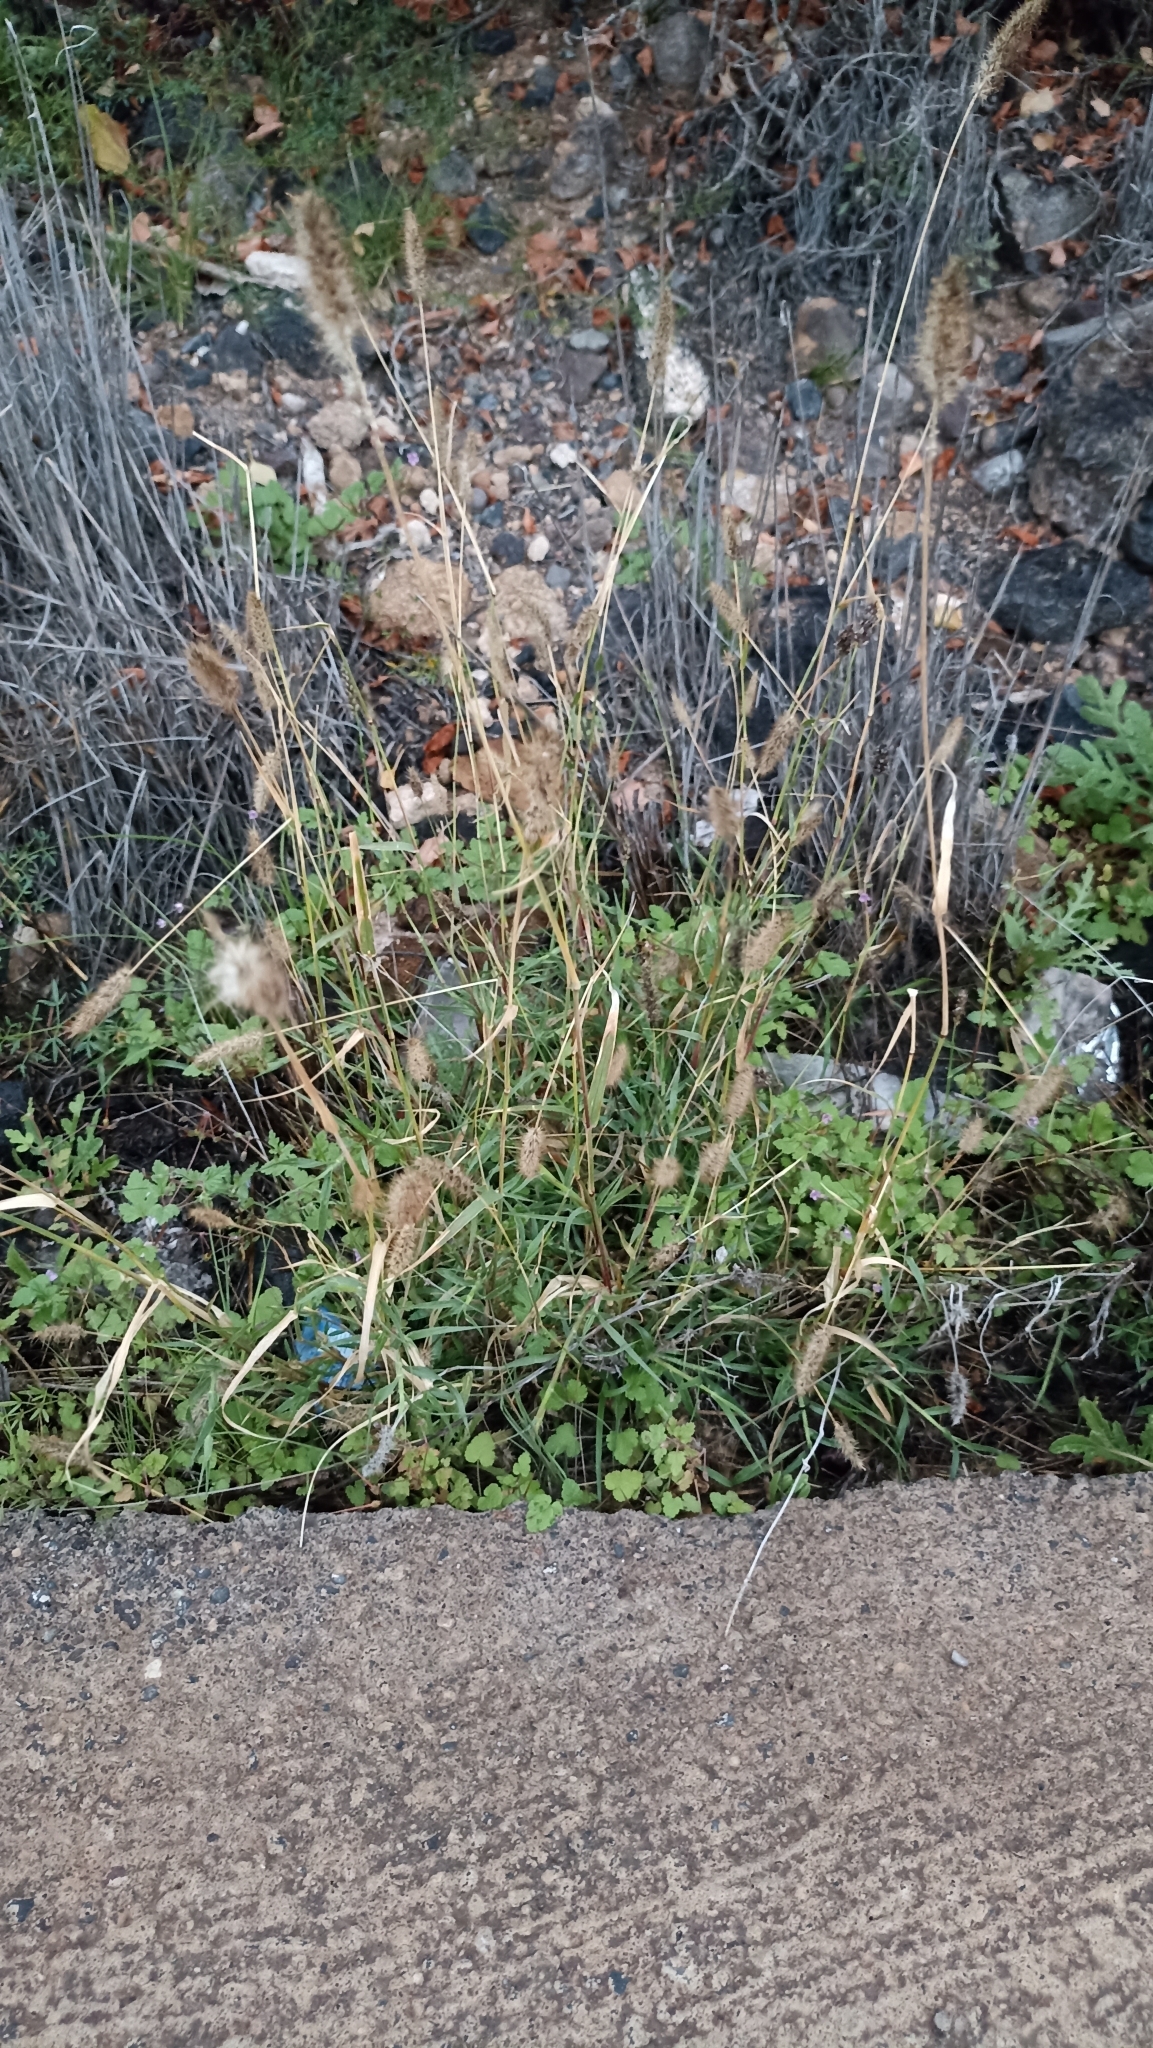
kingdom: Plantae
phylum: Tracheophyta
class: Liliopsida
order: Poales
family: Poaceae
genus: Cenchrus
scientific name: Cenchrus ciliaris
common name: Buffelgrass
